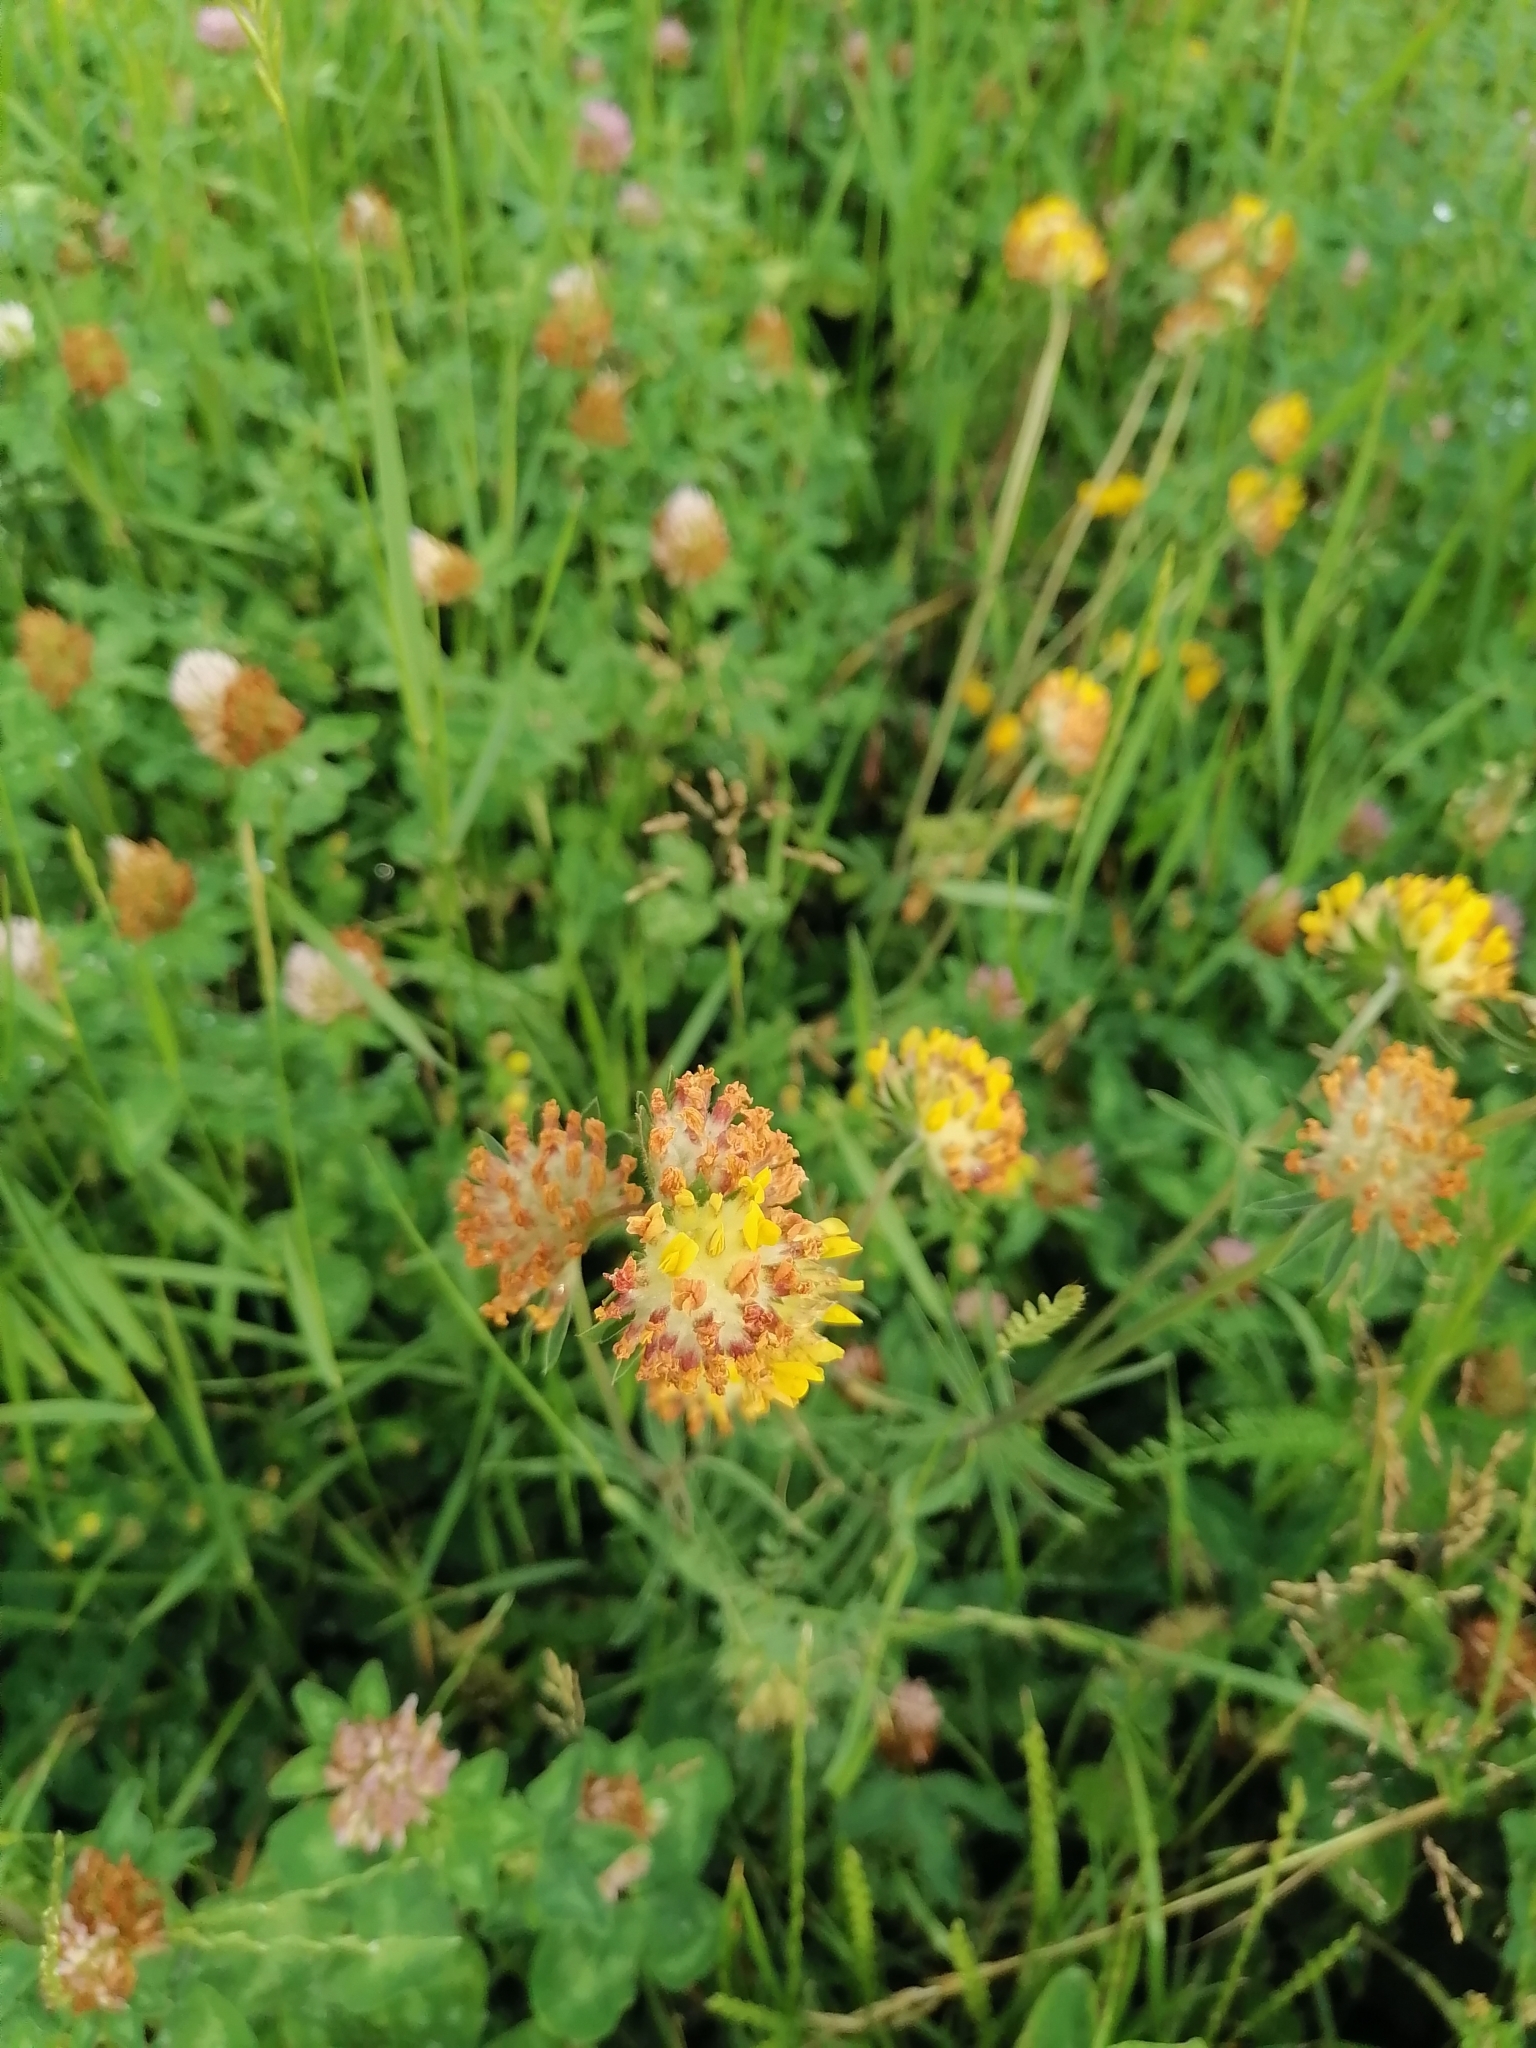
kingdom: Plantae
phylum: Tracheophyta
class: Magnoliopsida
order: Fabales
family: Fabaceae
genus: Anthyllis
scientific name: Anthyllis vulneraria
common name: Kidney vetch
